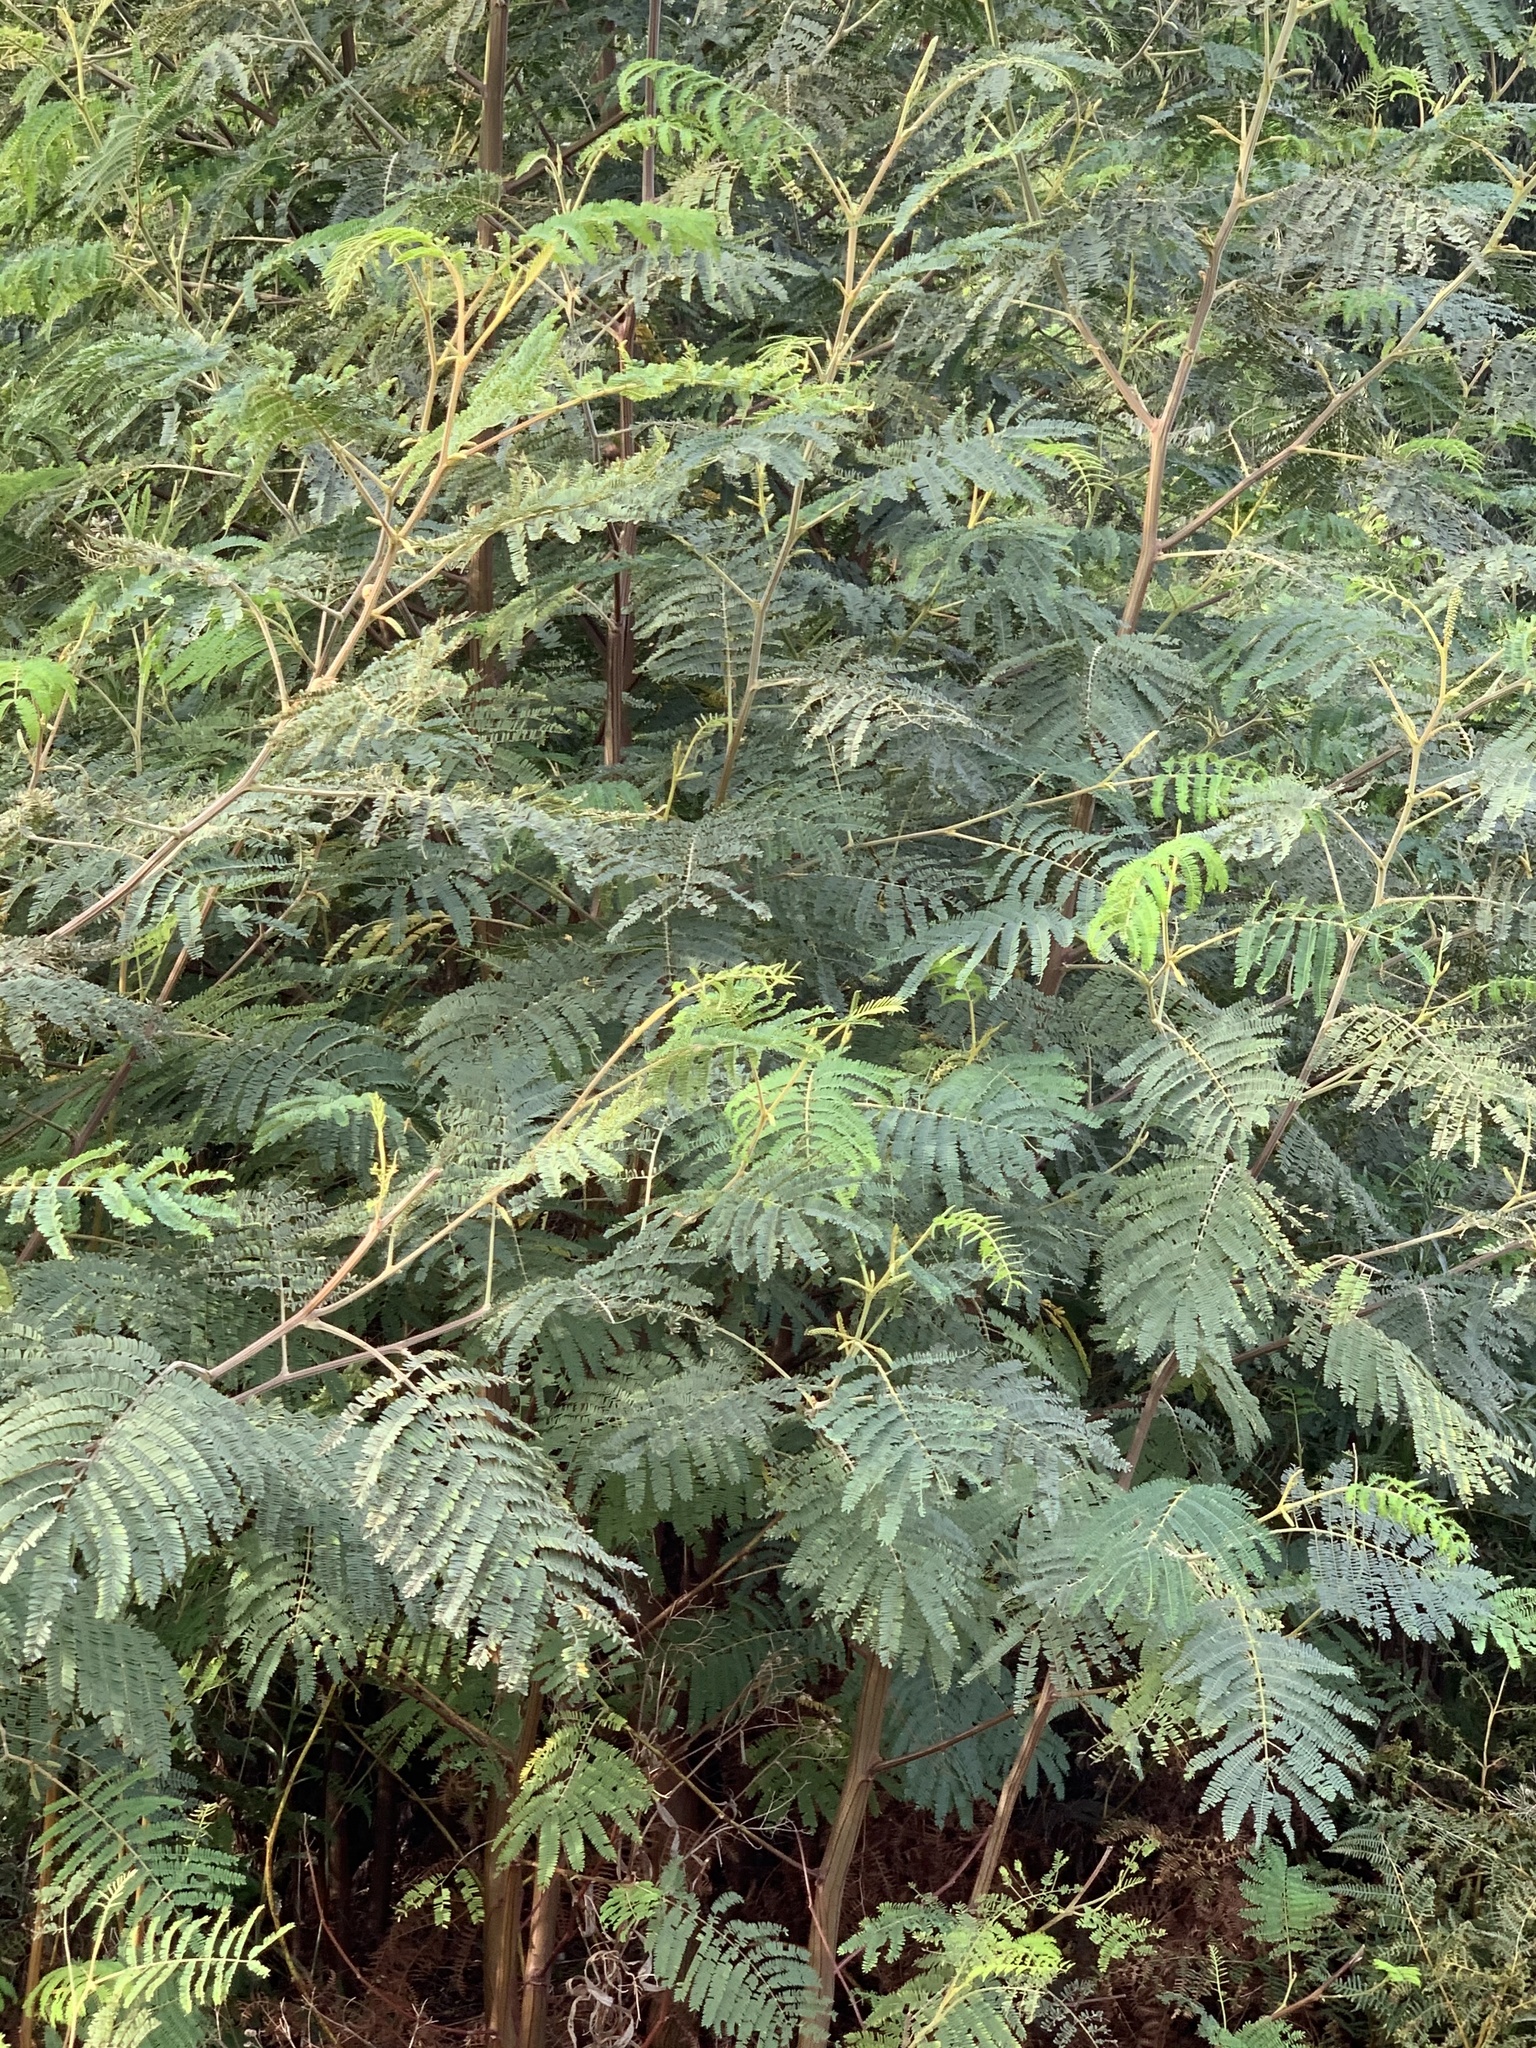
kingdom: Plantae
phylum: Tracheophyta
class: Magnoliopsida
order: Fabales
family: Fabaceae
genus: Paraserianthes
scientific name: Paraserianthes lophantha
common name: Plume albizia
